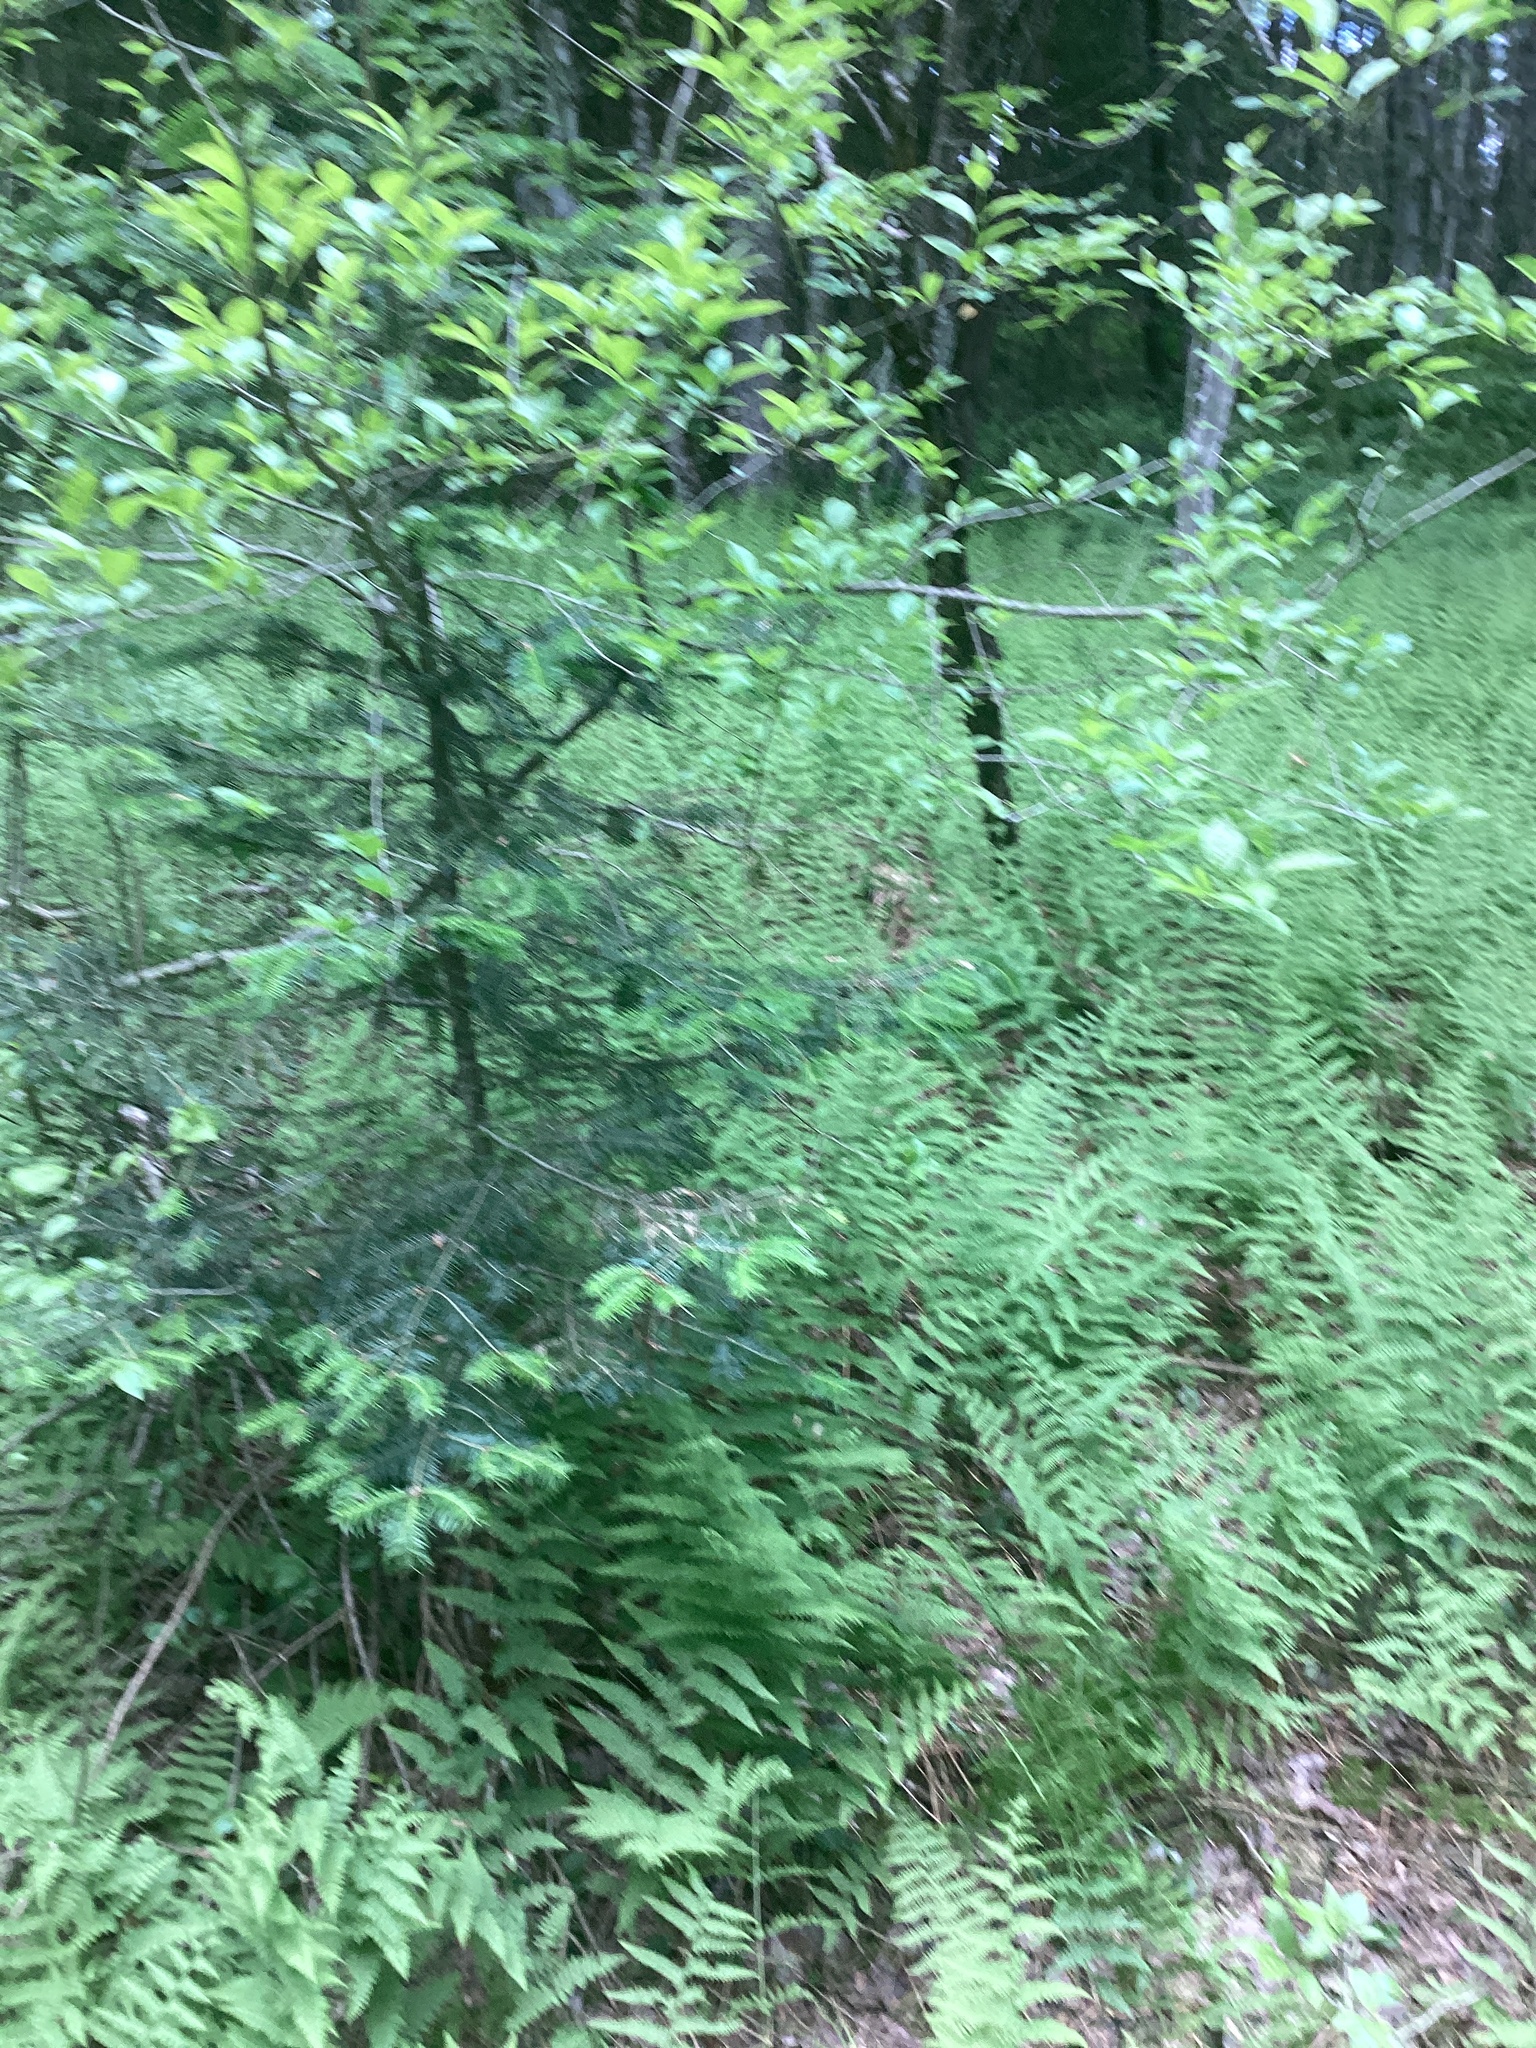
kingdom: Plantae
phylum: Tracheophyta
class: Magnoliopsida
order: Aquifoliales
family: Aquifoliaceae
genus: Ilex
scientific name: Ilex verticillata
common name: Virginia winterberry
